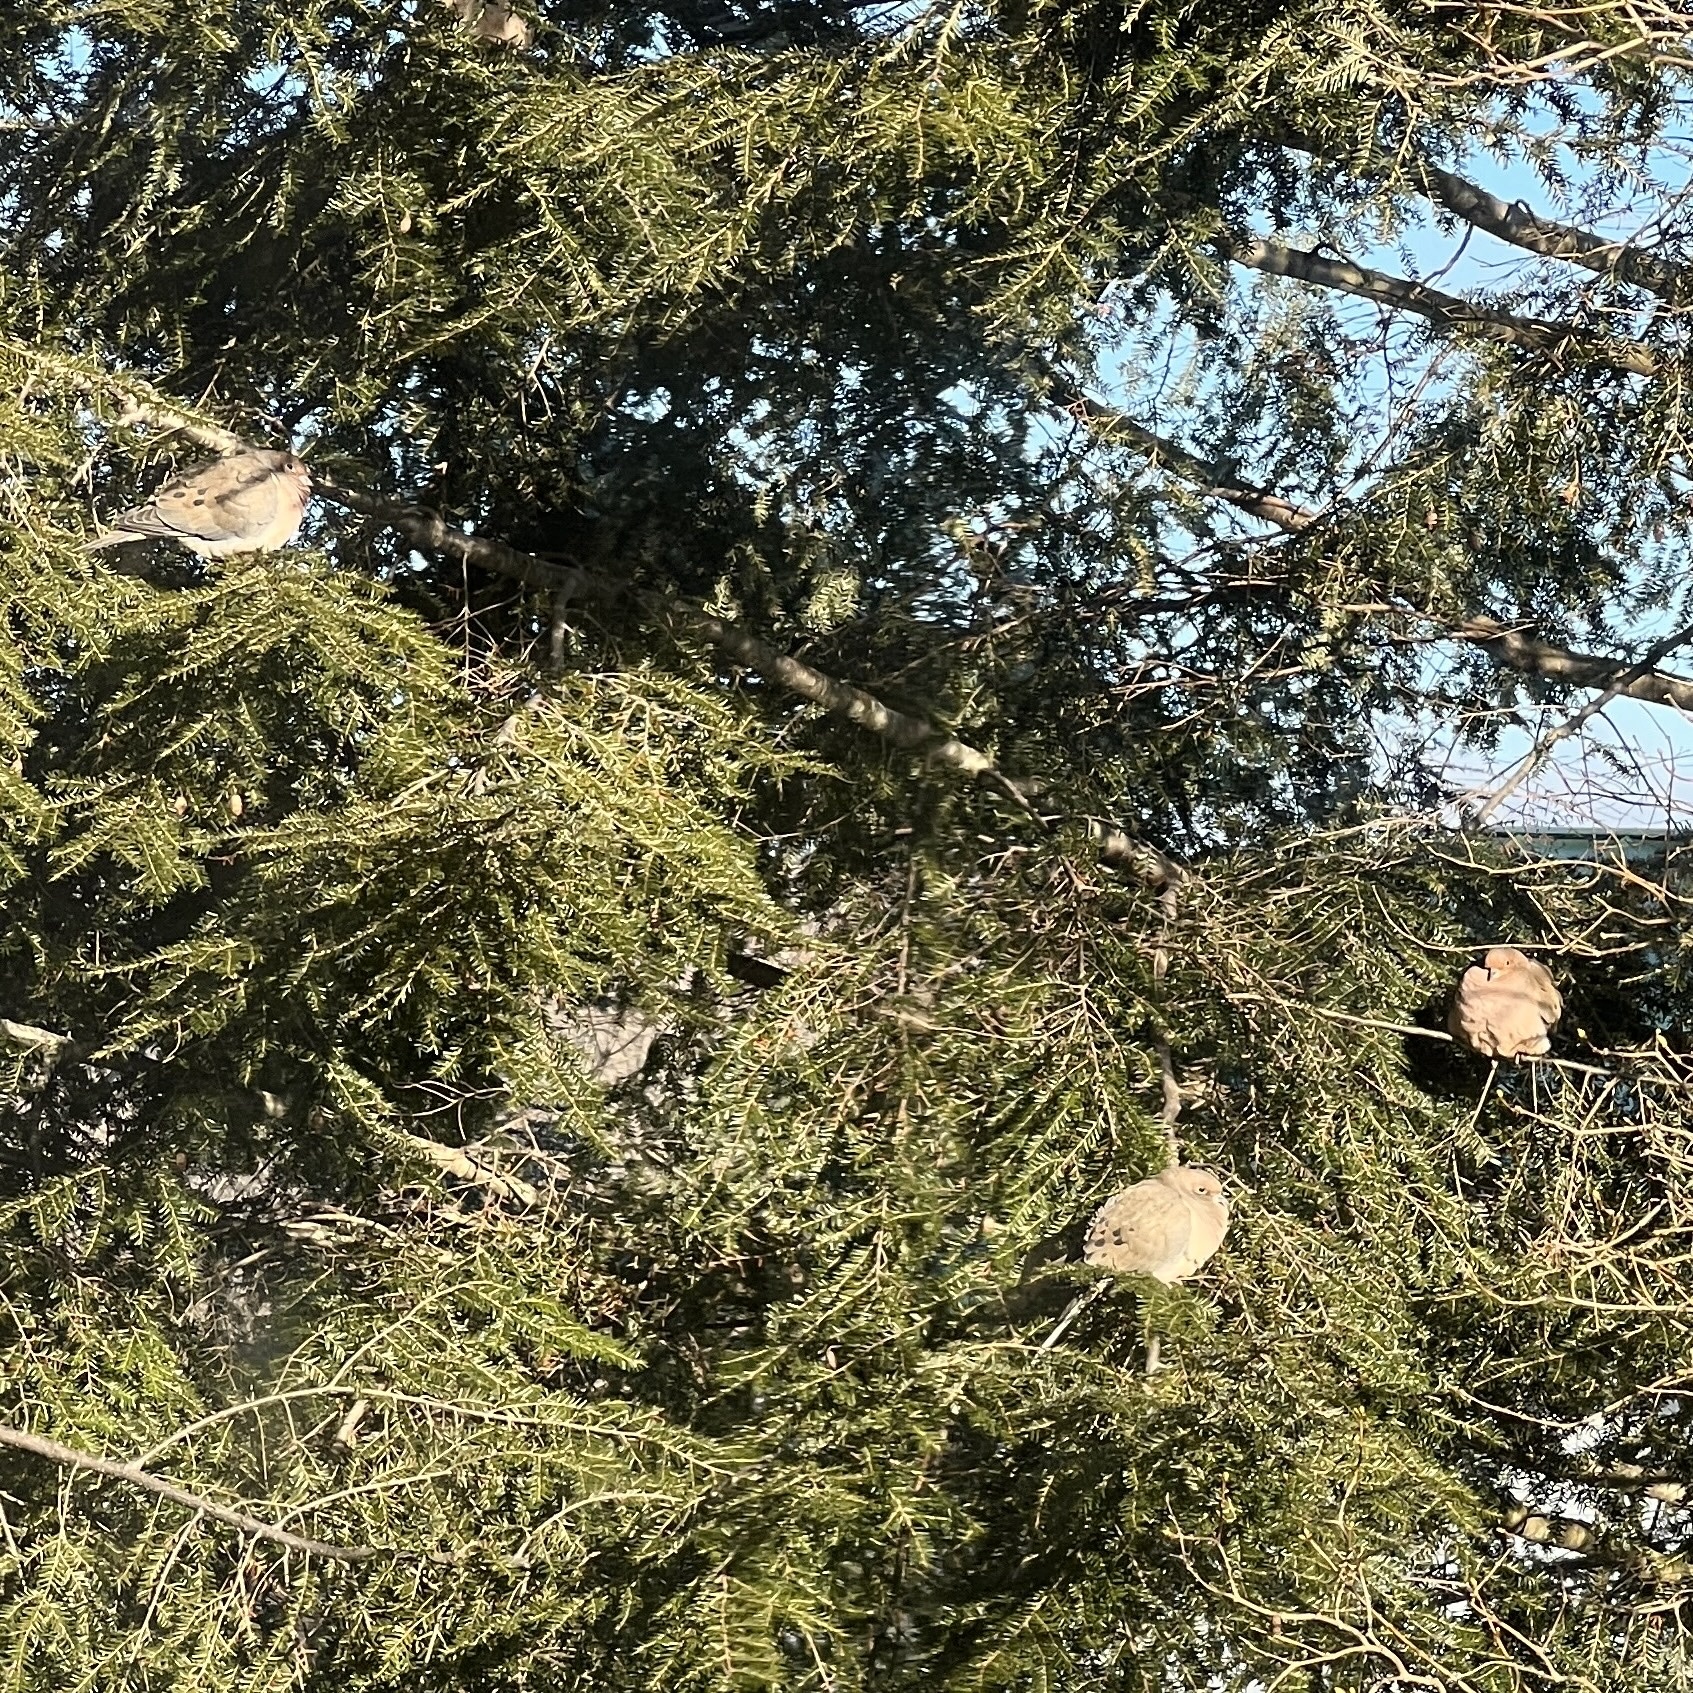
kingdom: Animalia
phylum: Chordata
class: Aves
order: Columbiformes
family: Columbidae
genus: Zenaida
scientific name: Zenaida macroura
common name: Mourning dove
